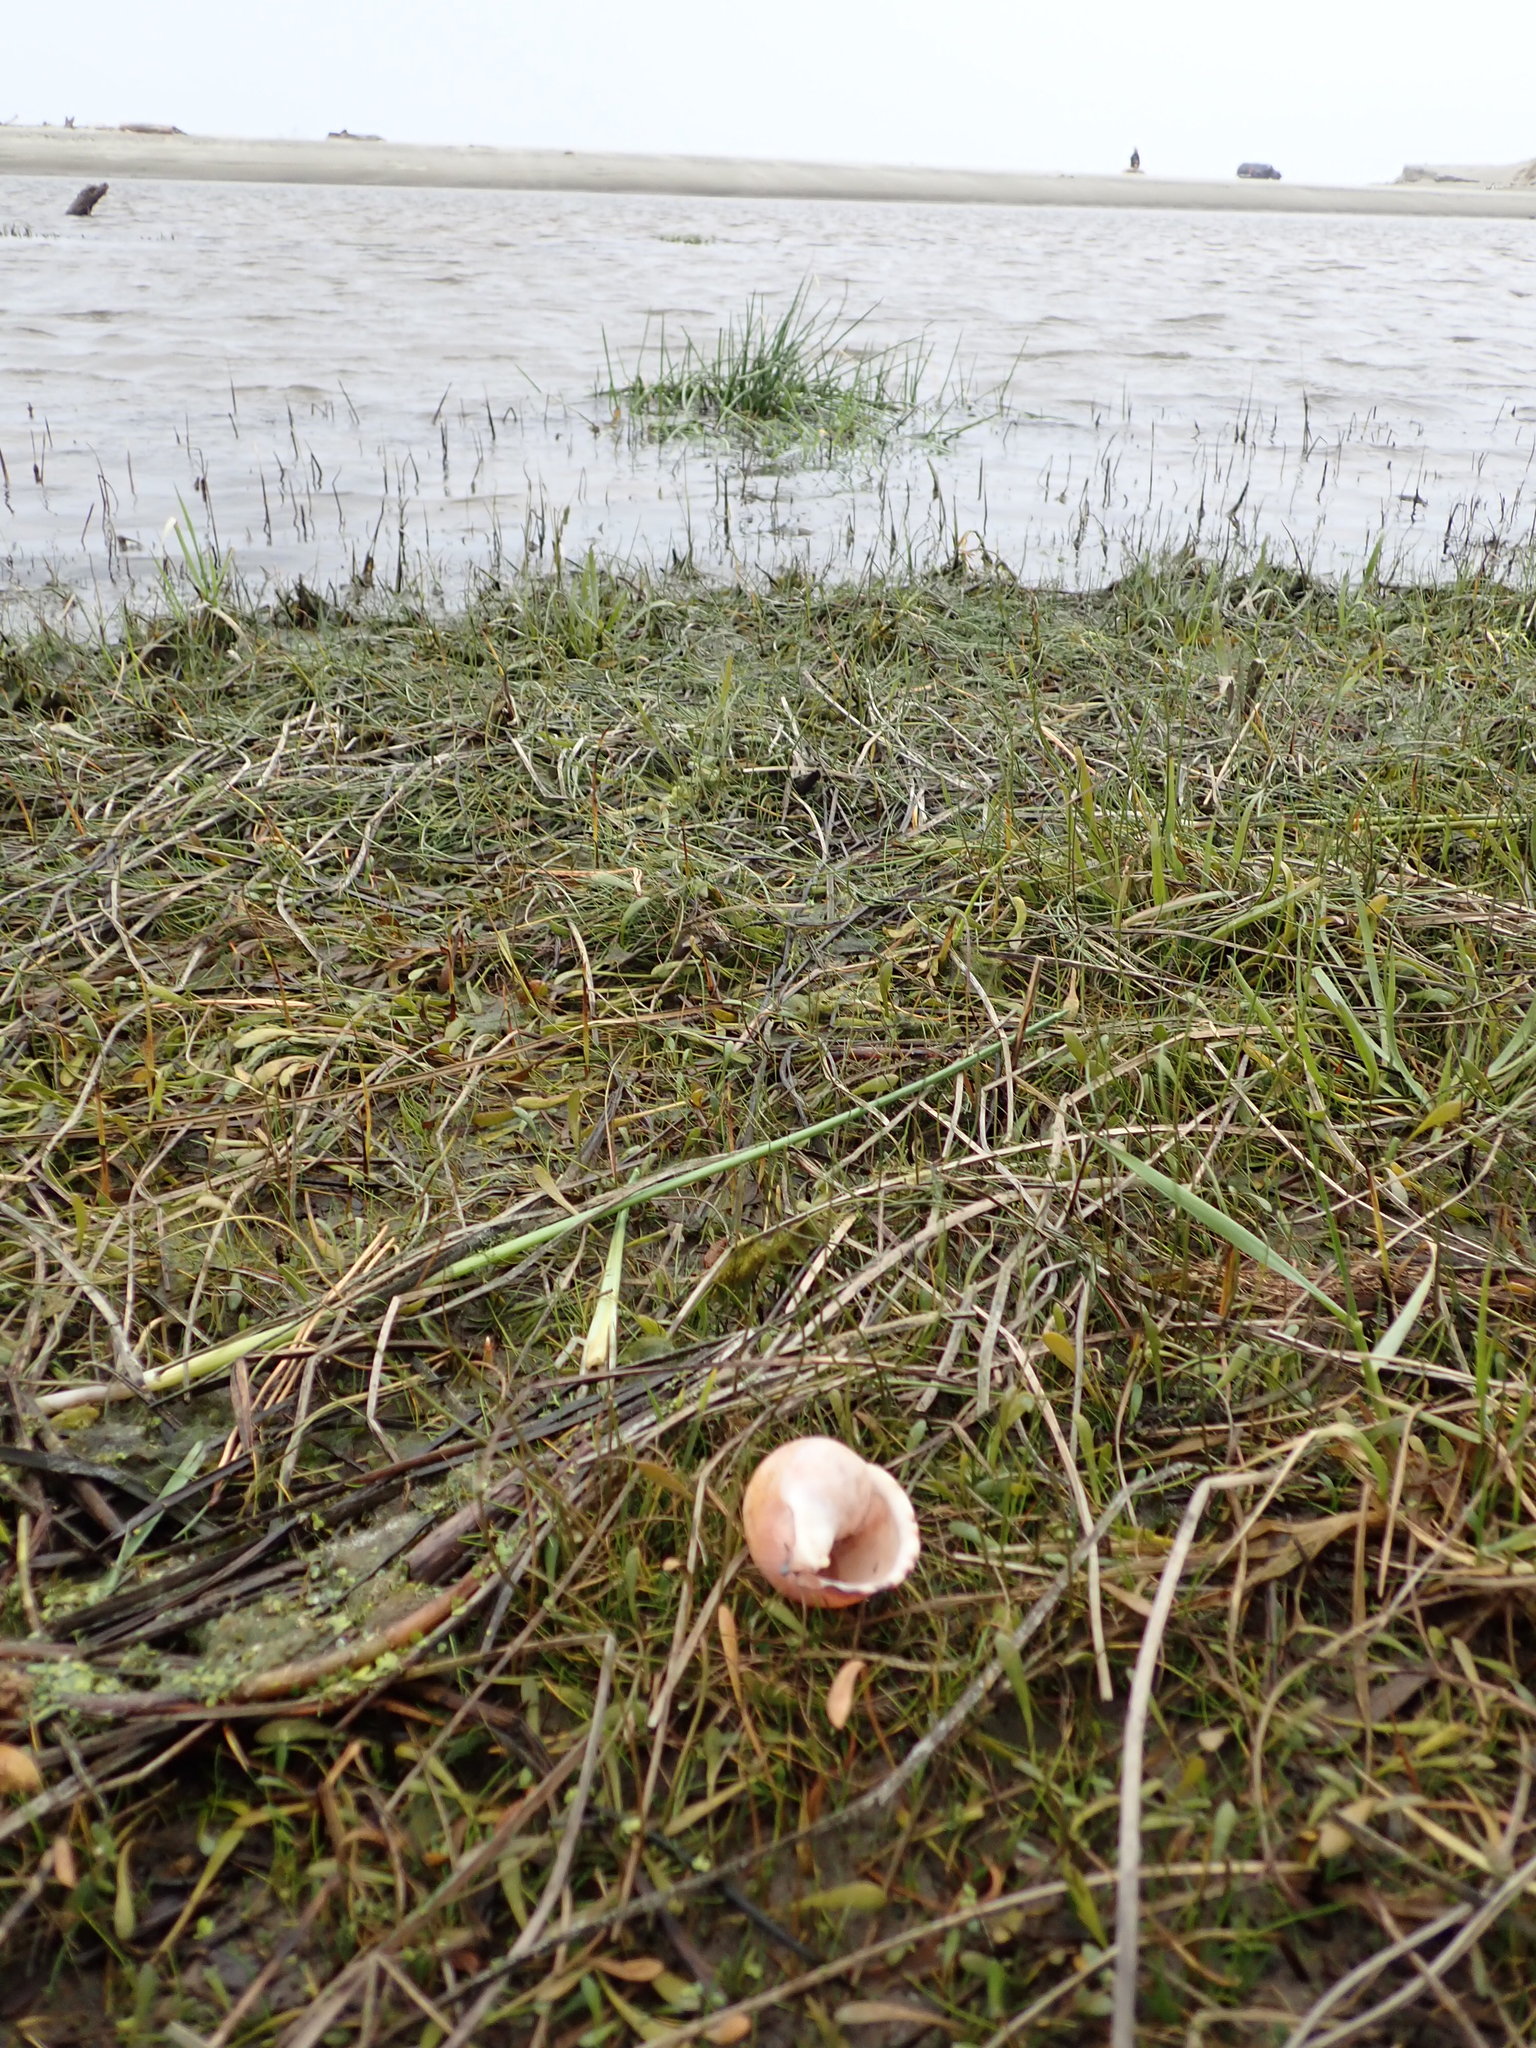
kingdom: Animalia
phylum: Mollusca
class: Gastropoda
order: Littorinimorpha
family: Cassidae
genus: Semicassis
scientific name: Semicassis pyrum
